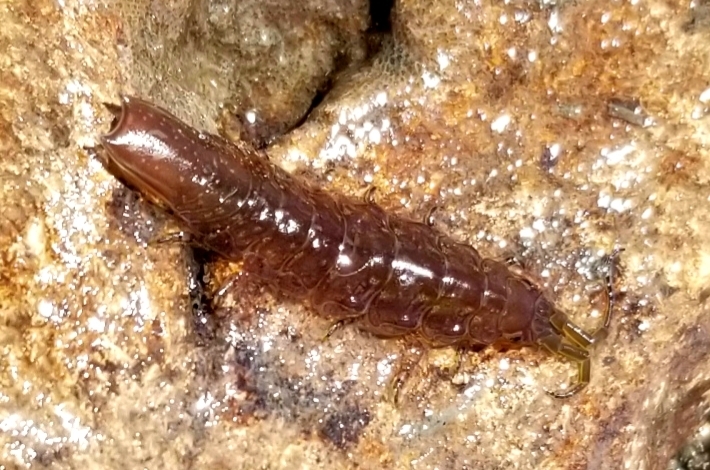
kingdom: Animalia
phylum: Arthropoda
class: Malacostraca
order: Isopoda
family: Idoteidae
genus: Pentidotea
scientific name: Pentidotea resecata
